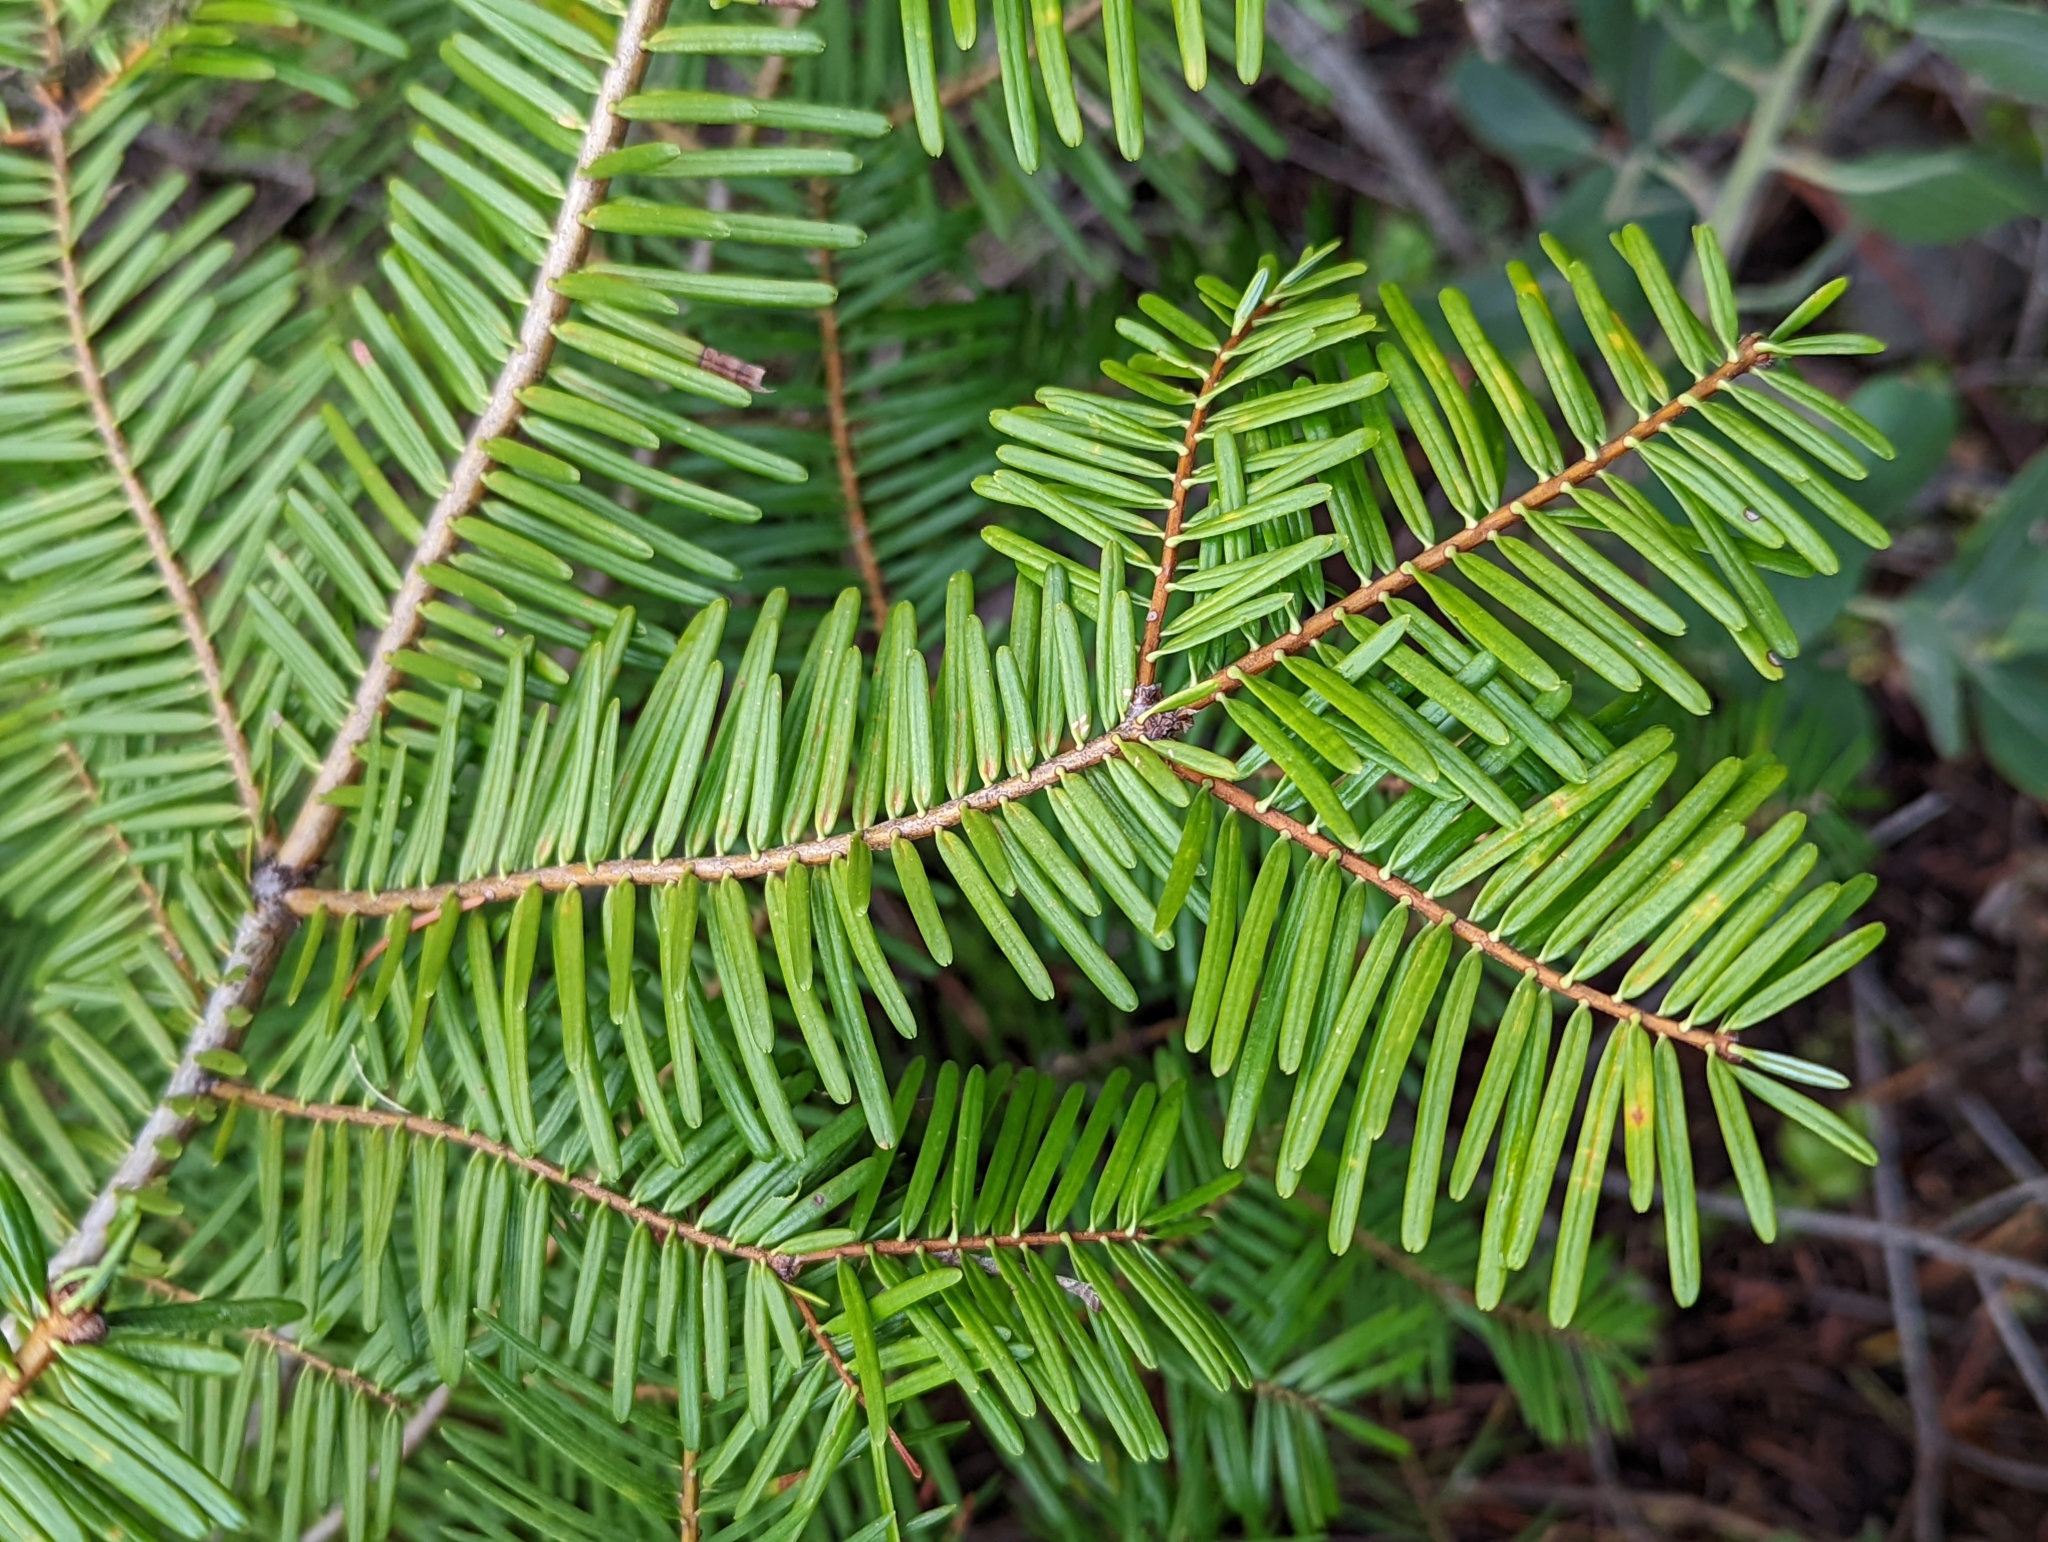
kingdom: Plantae
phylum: Tracheophyta
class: Pinopsida
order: Pinales
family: Pinaceae
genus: Abies
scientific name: Abies grandis
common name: Giant fir
